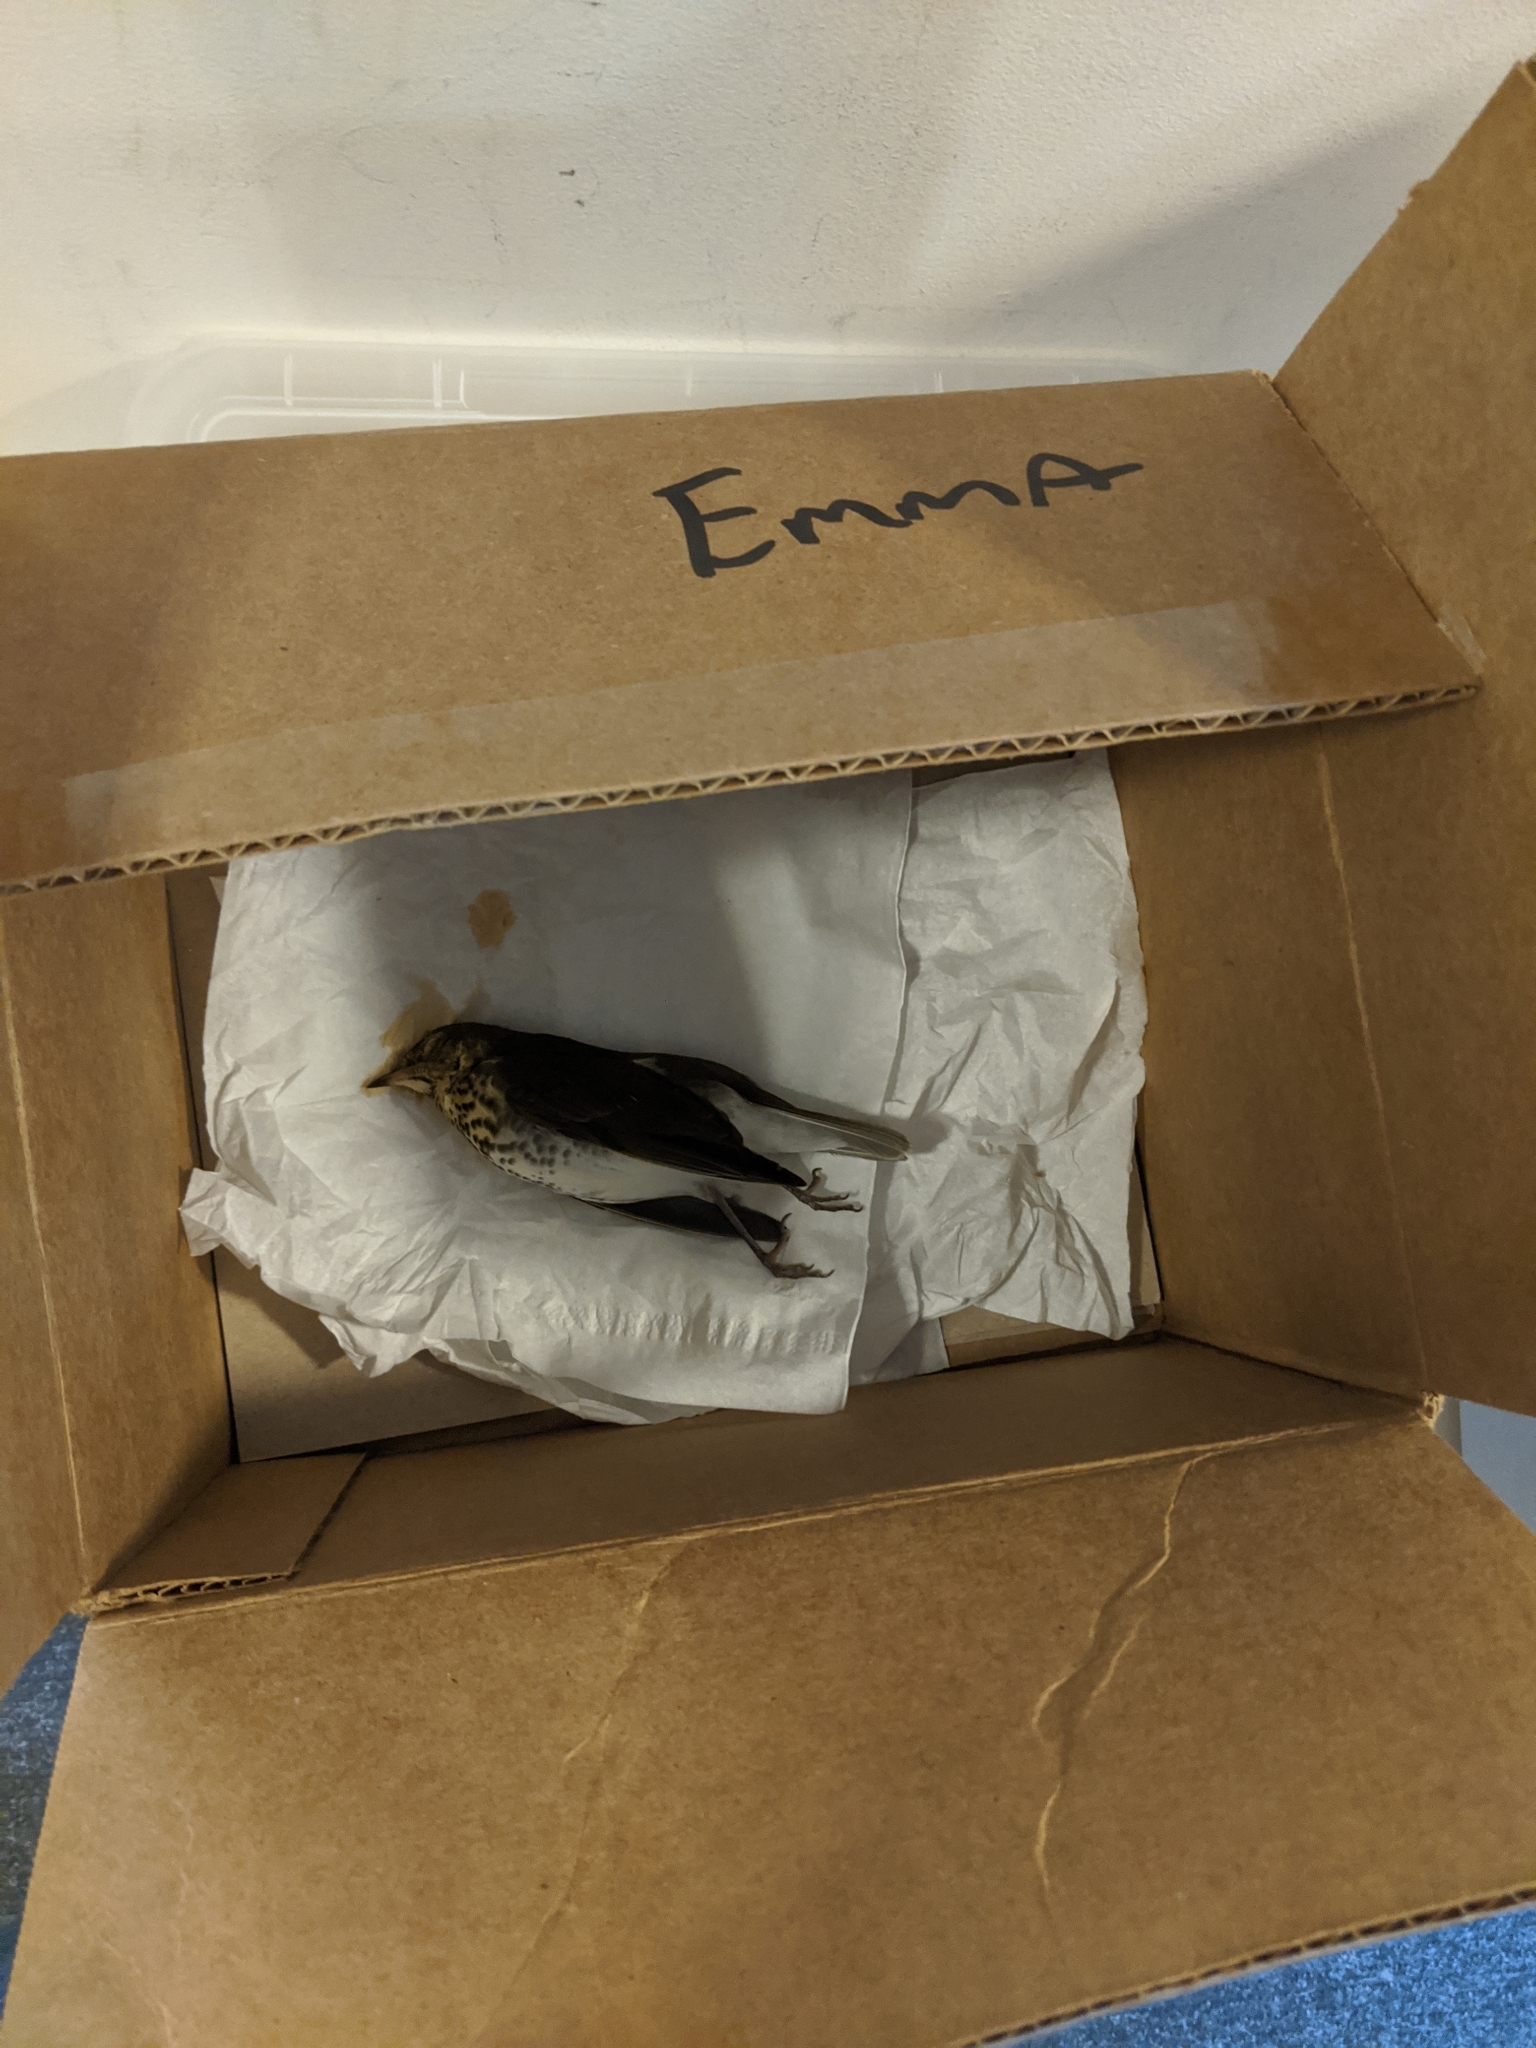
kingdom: Animalia
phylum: Chordata
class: Aves
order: Passeriformes
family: Turdidae
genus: Catharus
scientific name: Catharus ustulatus
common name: Swainson's thrush
